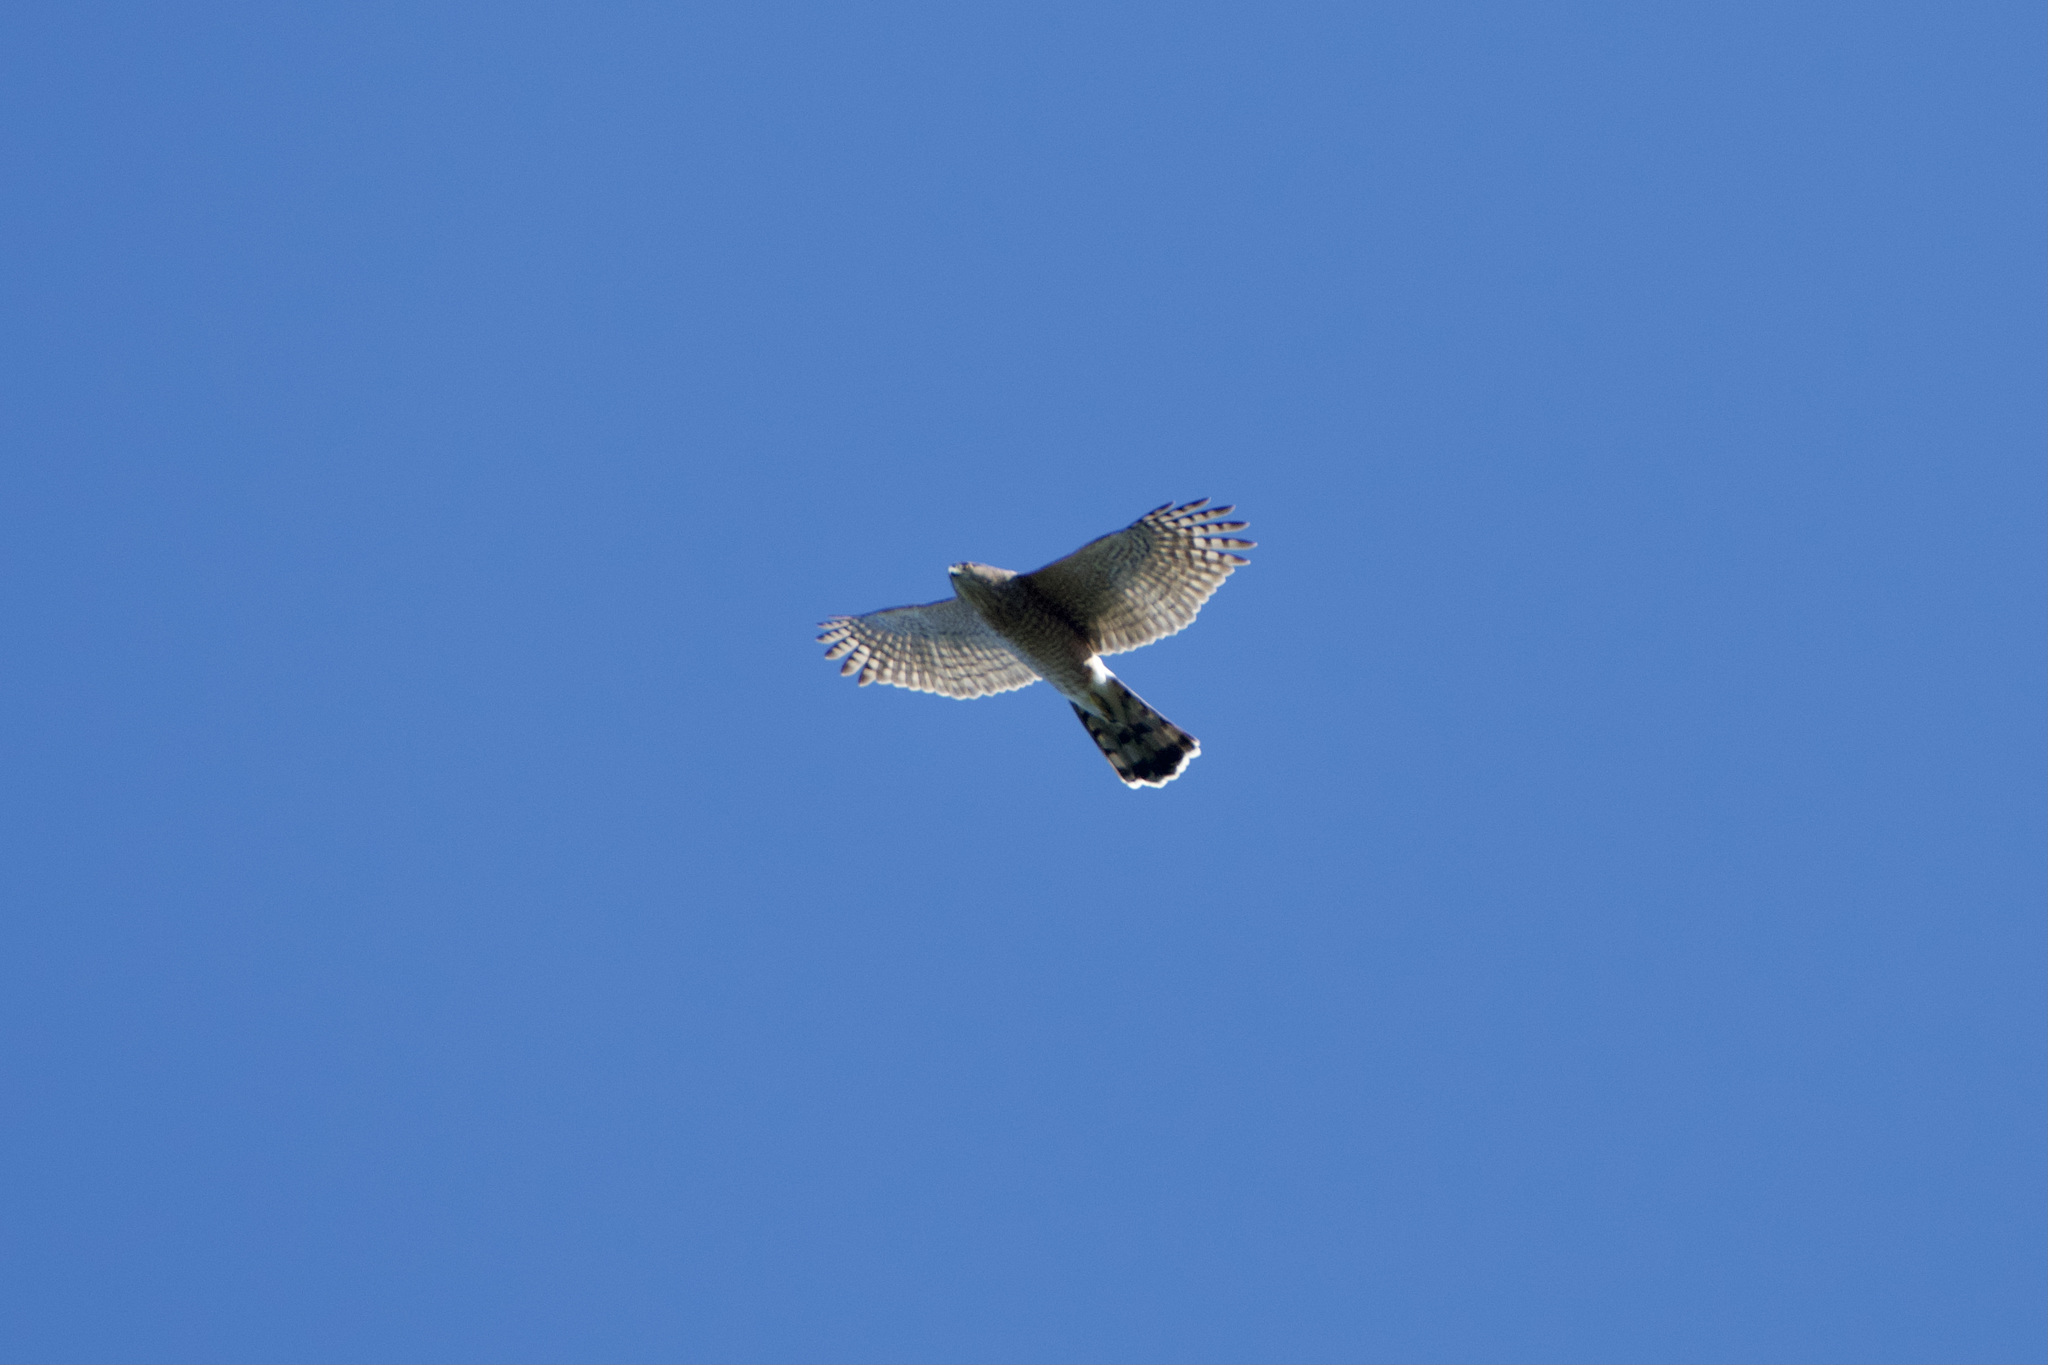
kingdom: Animalia
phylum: Chordata
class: Aves
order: Accipitriformes
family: Accipitridae
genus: Accipiter
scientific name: Accipiter cooperii
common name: Cooper's hawk
